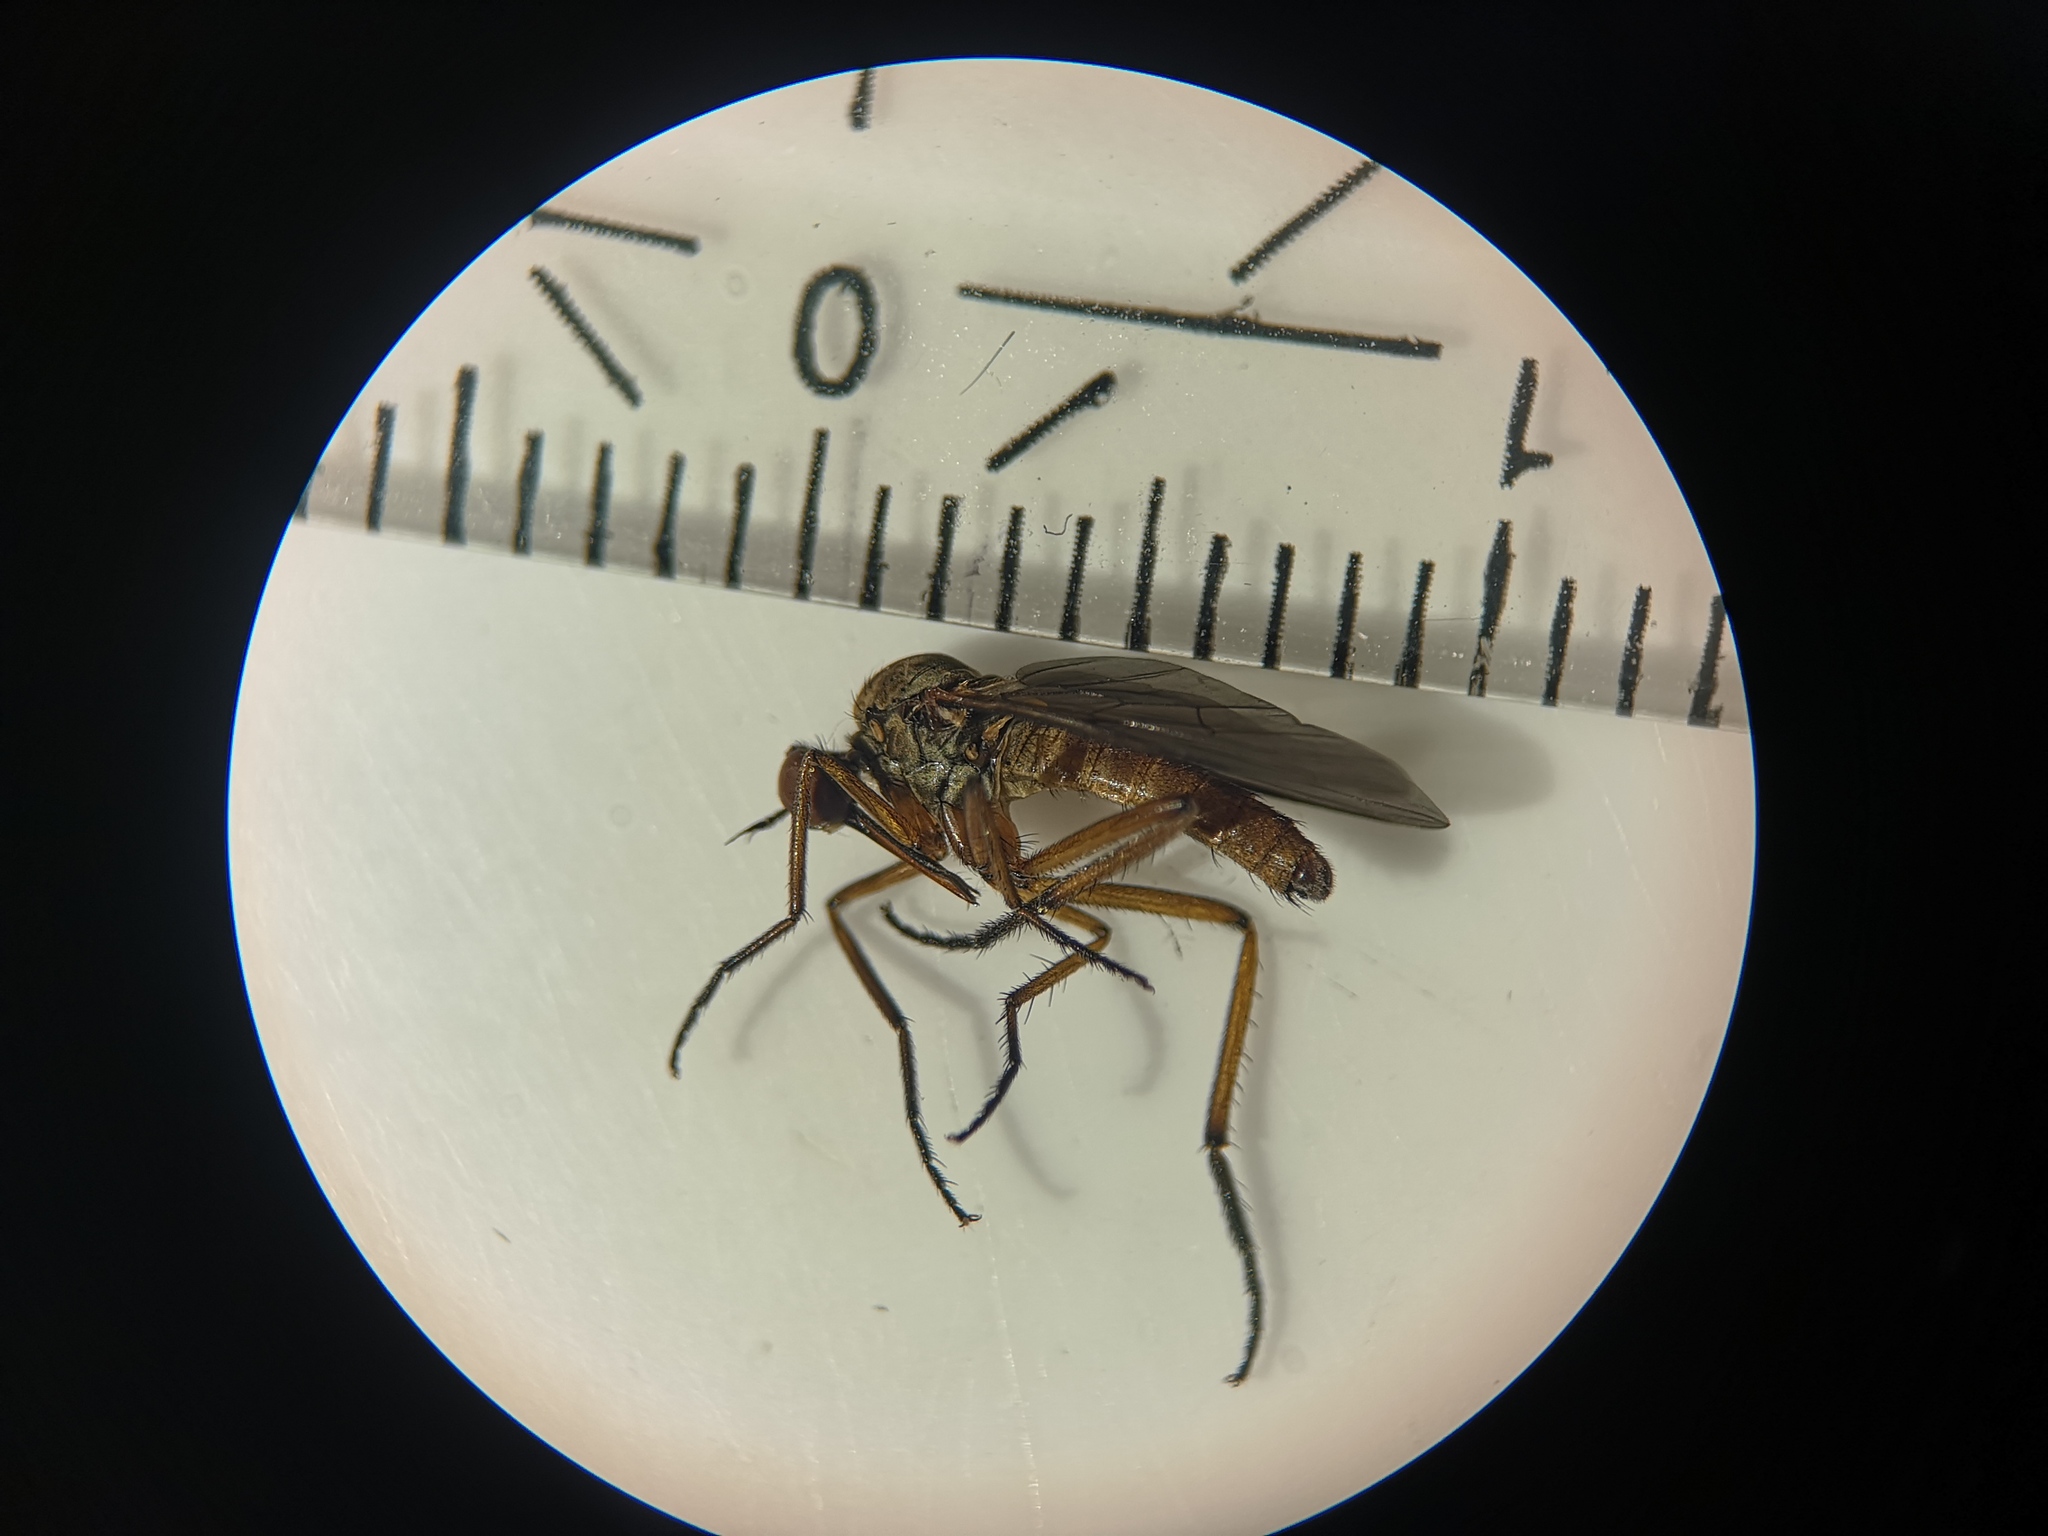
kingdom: Animalia
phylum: Arthropoda
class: Insecta
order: Diptera
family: Empididae
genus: Empis
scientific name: Empis livida
